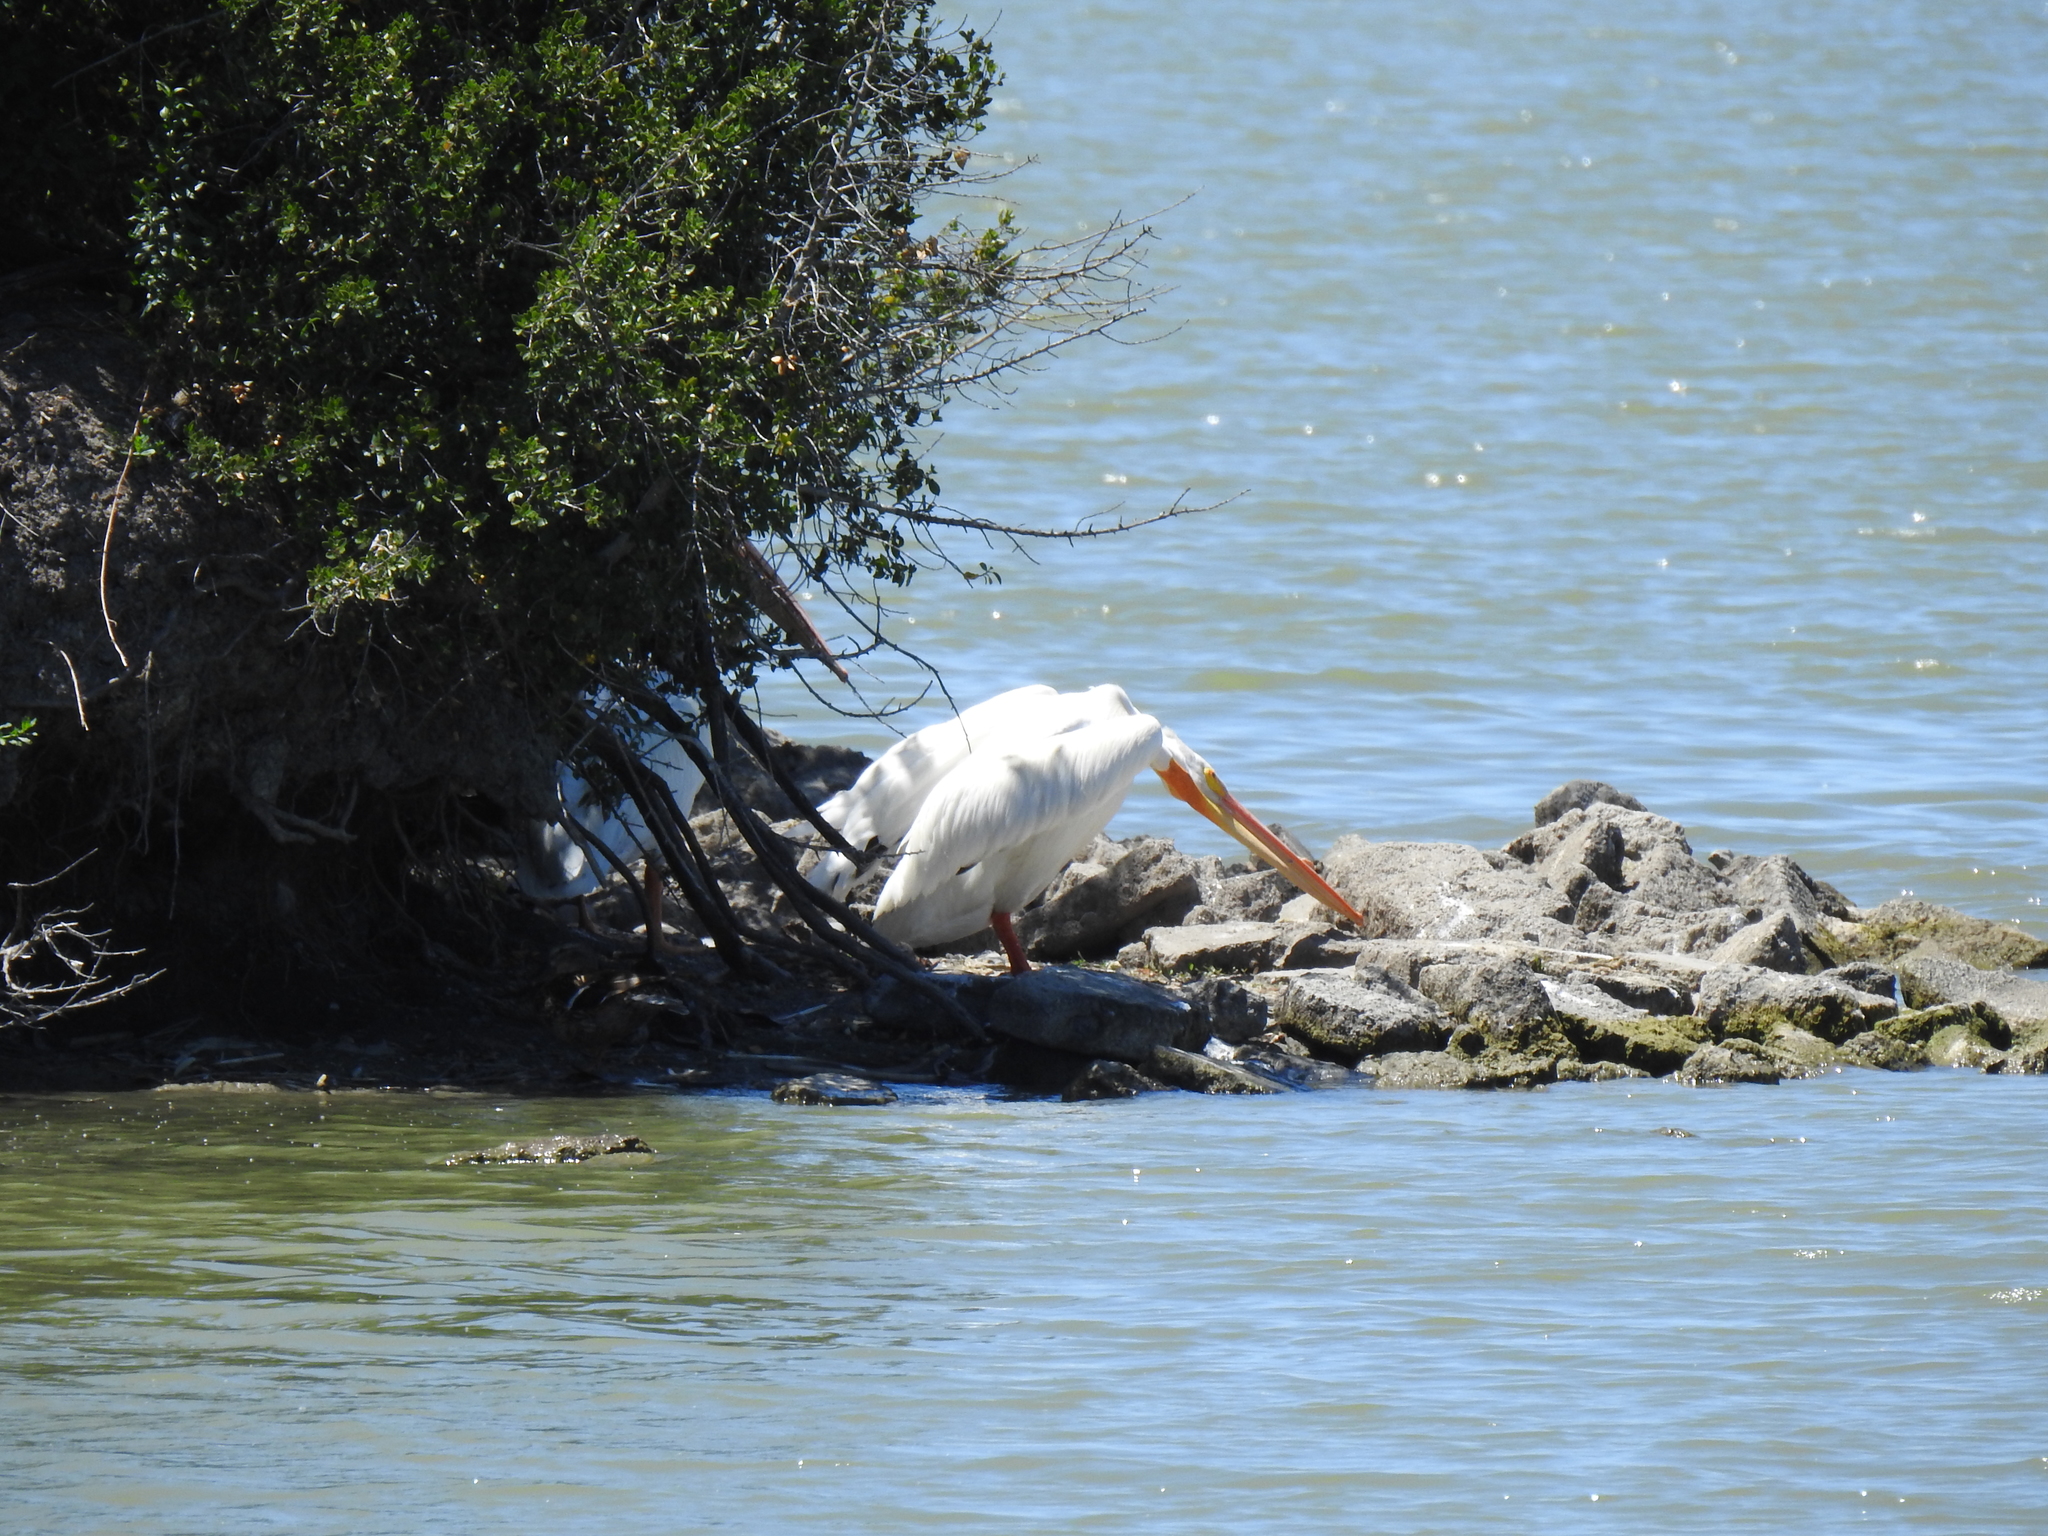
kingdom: Animalia
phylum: Chordata
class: Aves
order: Pelecaniformes
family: Pelecanidae
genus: Pelecanus
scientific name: Pelecanus erythrorhynchos
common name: American white pelican
